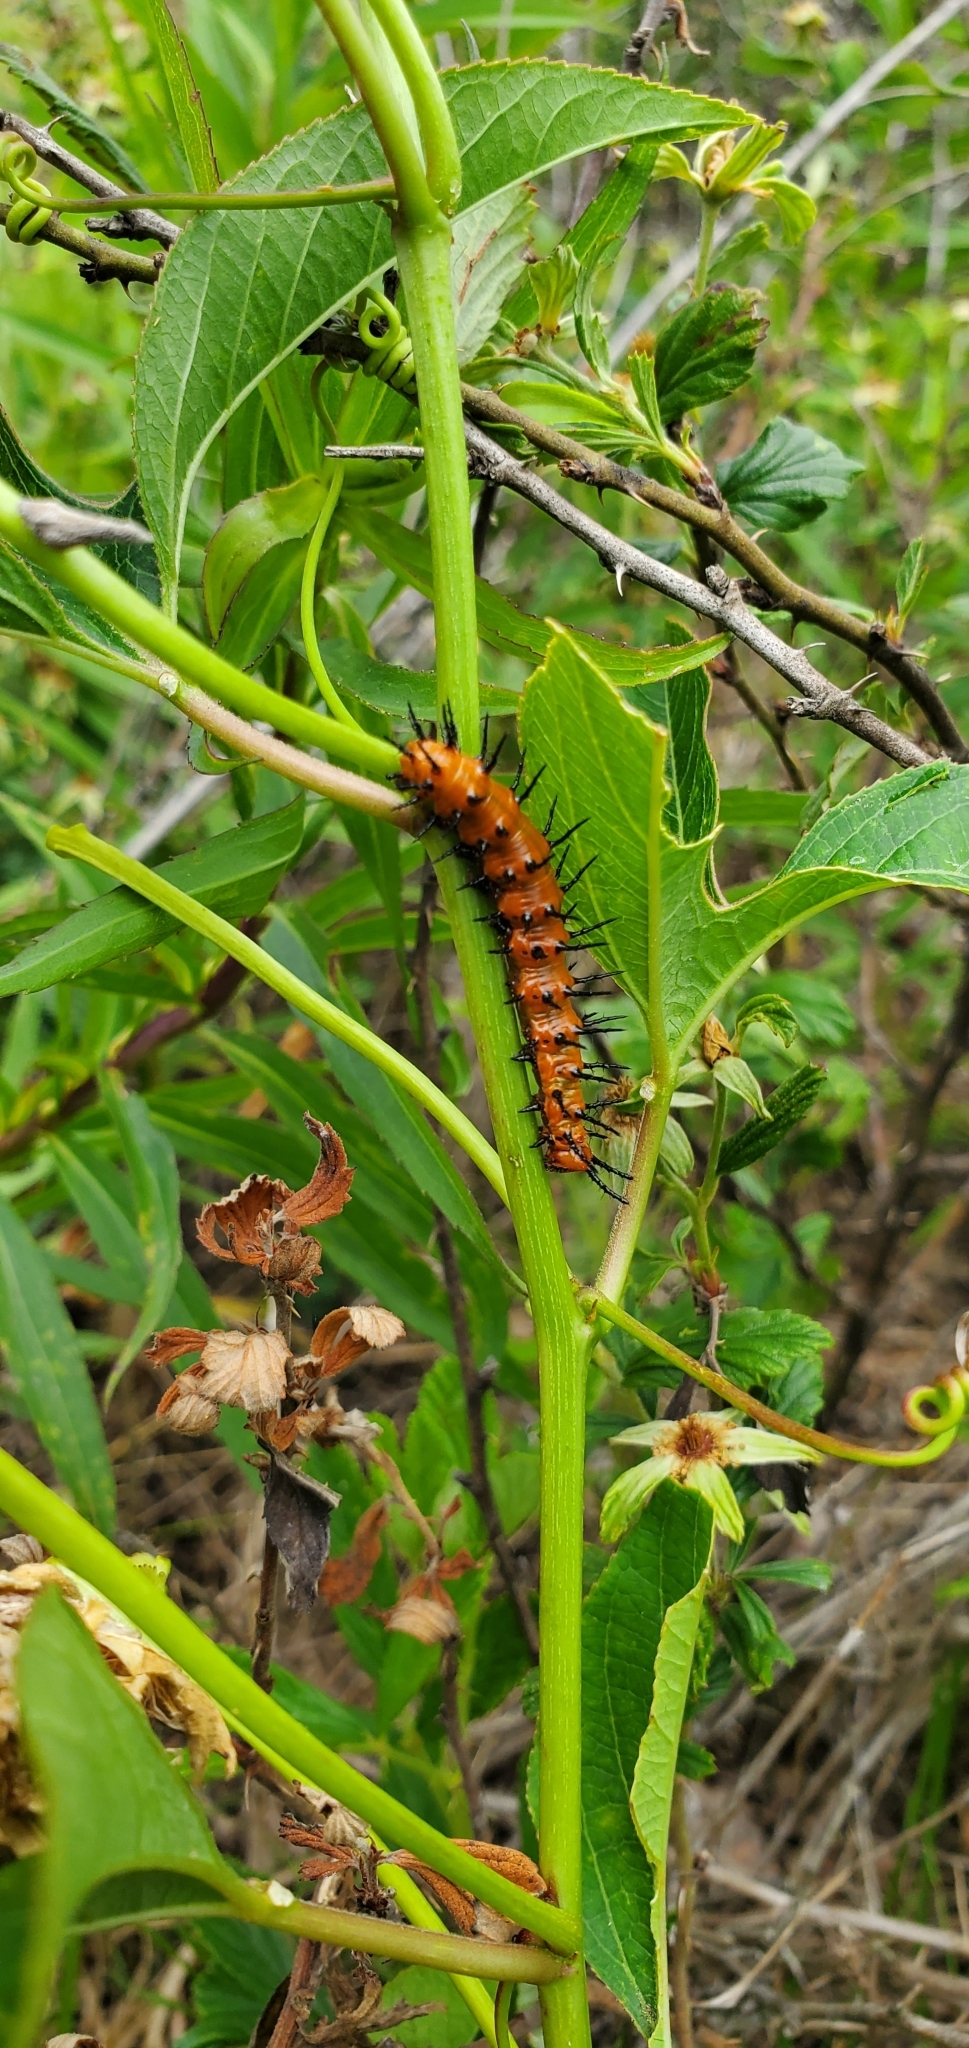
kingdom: Animalia
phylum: Arthropoda
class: Insecta
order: Lepidoptera
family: Nymphalidae
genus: Dione
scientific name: Dione vanillae
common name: Gulf fritillary
